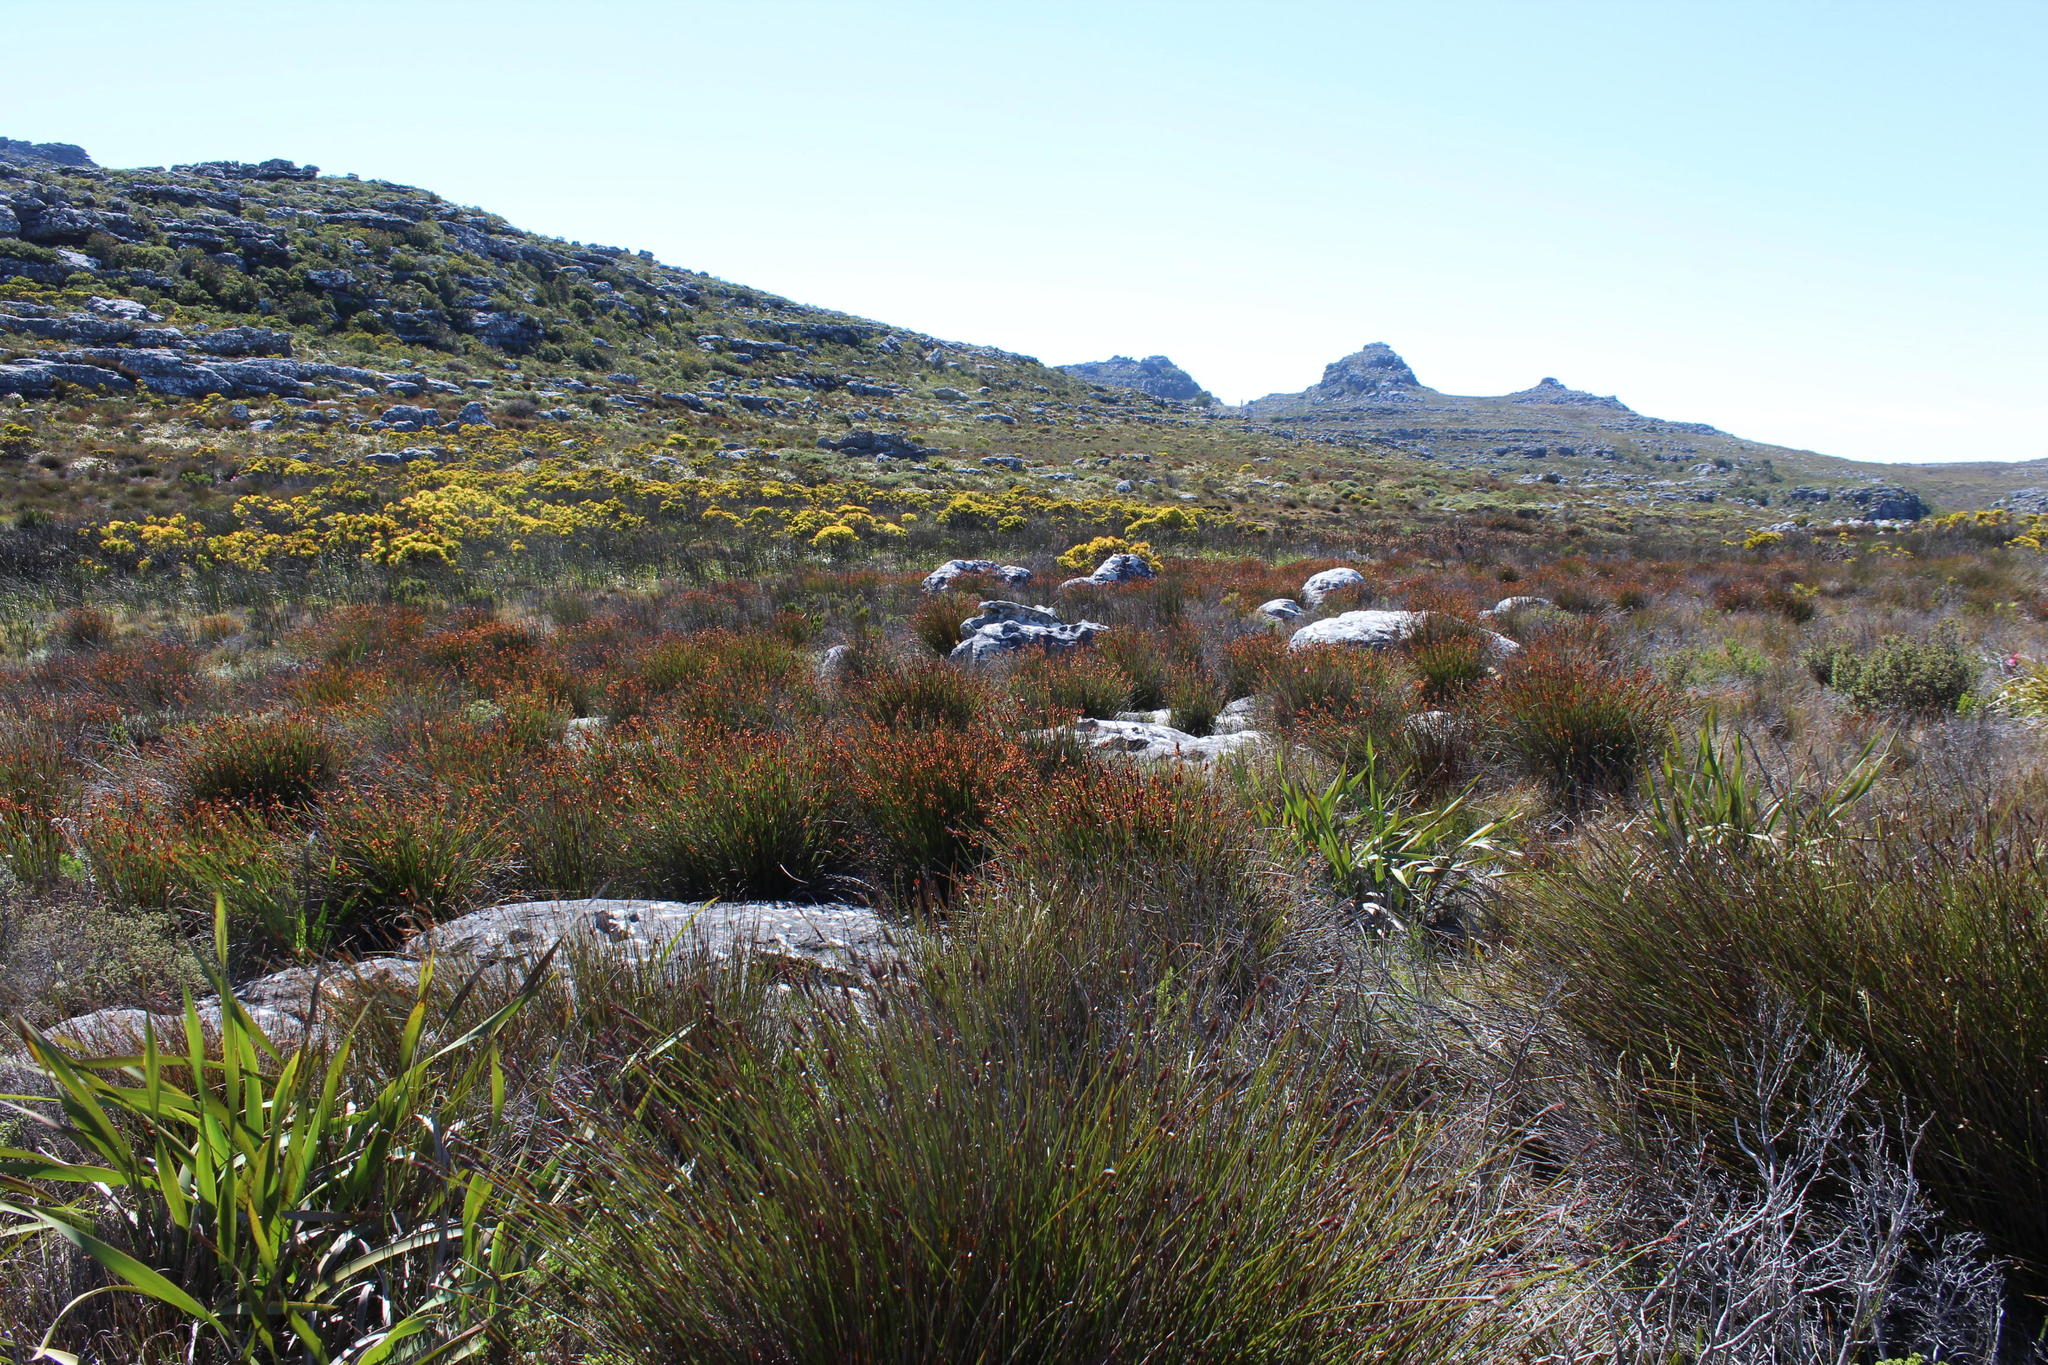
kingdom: Plantae
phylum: Tracheophyta
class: Liliopsida
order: Poales
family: Restionaceae
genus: Elegia
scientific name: Elegia ebracteata
